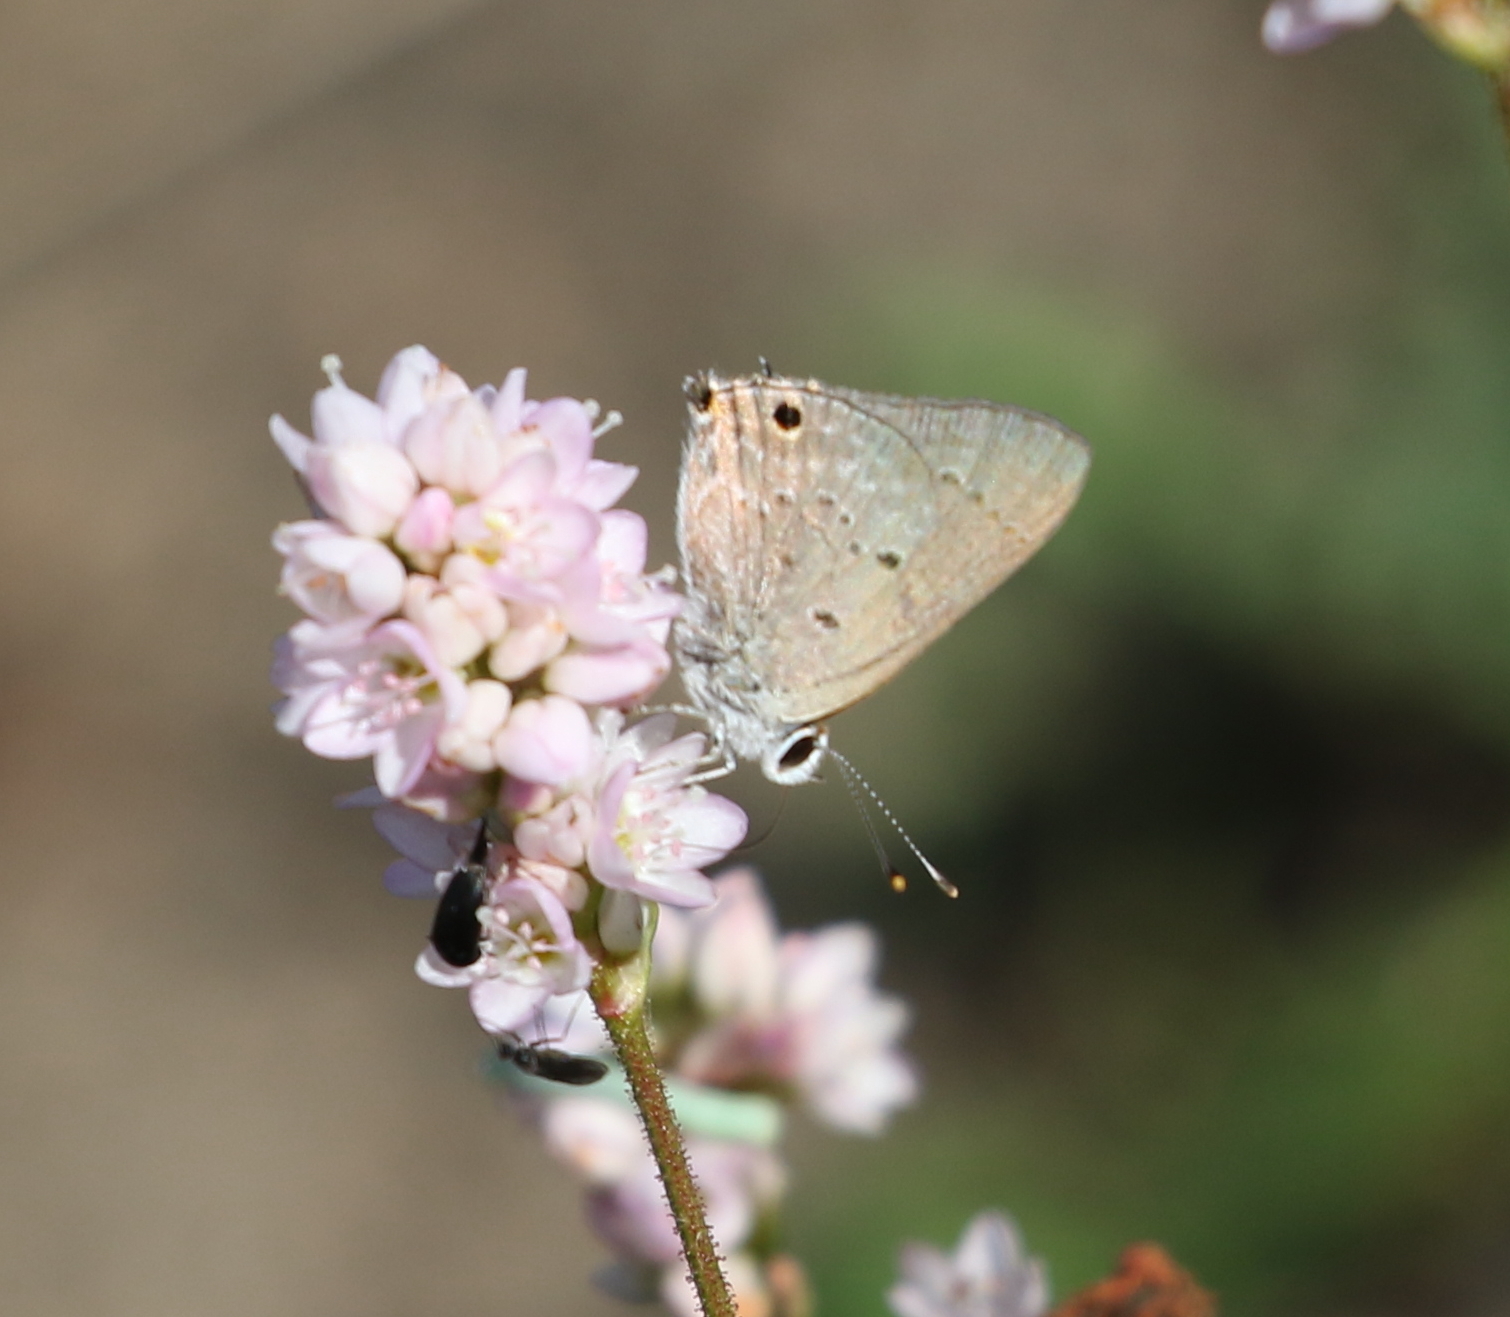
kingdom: Animalia
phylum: Arthropoda
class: Insecta
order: Lepidoptera
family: Lycaenidae
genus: Callicista
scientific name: Callicista columella
